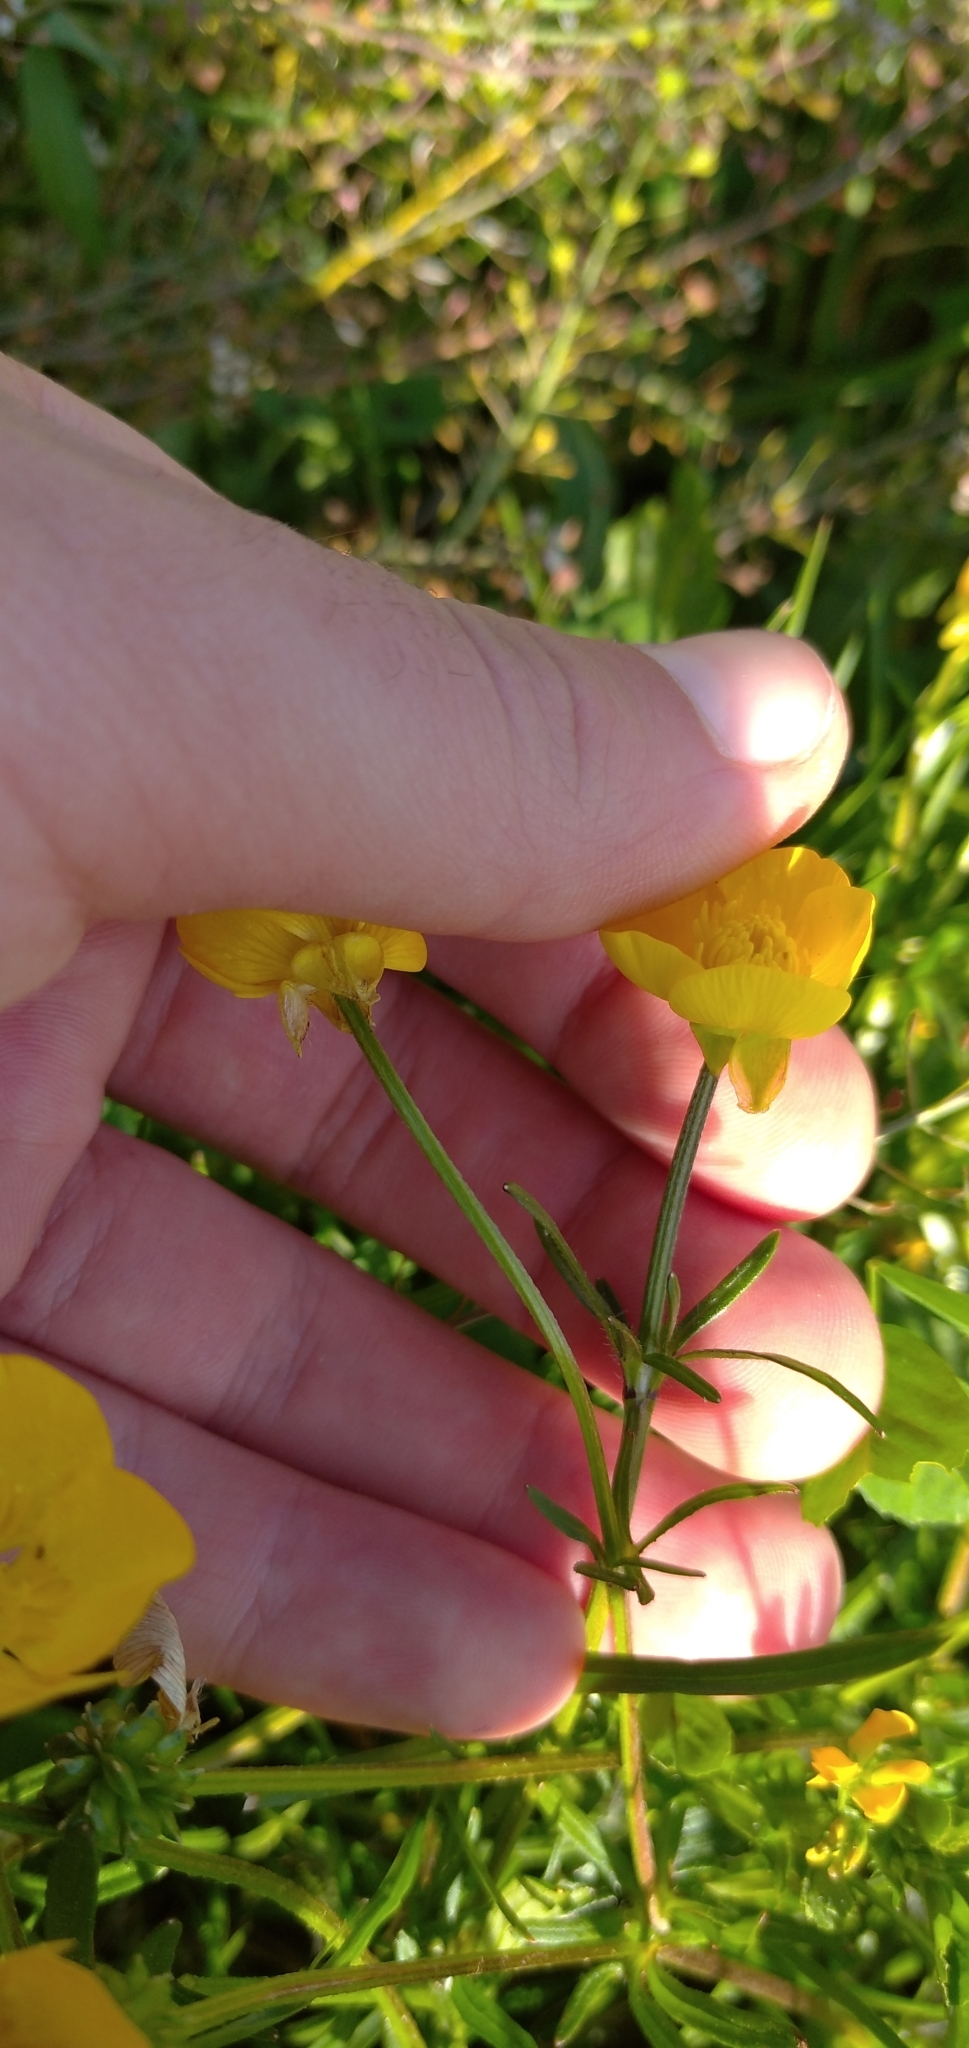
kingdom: Plantae
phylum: Tracheophyta
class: Magnoliopsida
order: Ranunculales
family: Ranunculaceae
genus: Ranunculus
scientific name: Ranunculus auricomus
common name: Goldilocks buttercup
